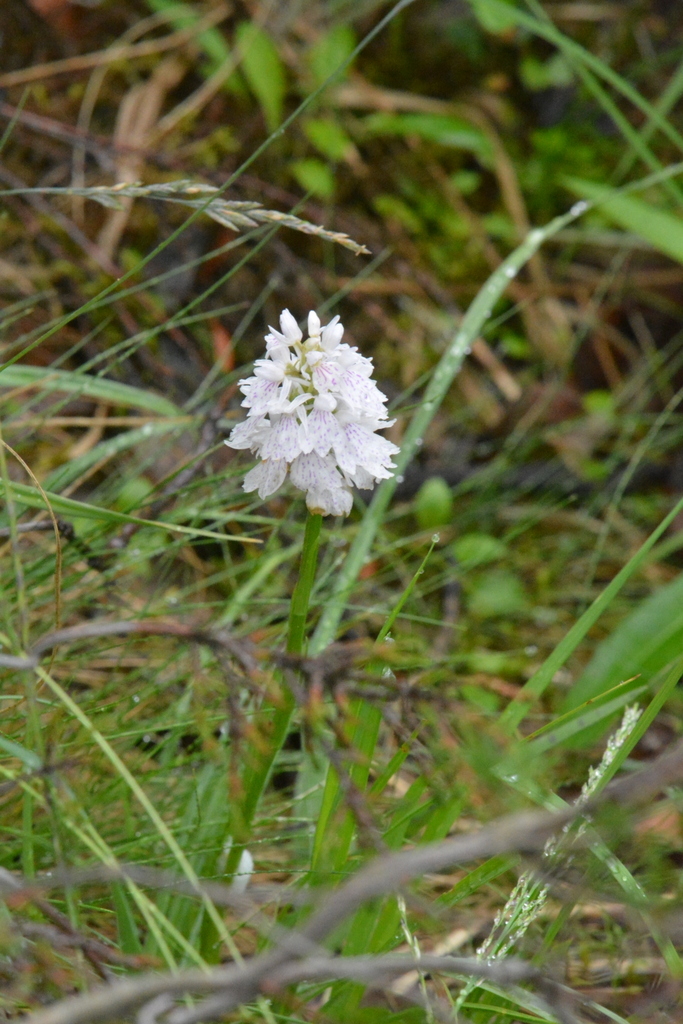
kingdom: Plantae
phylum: Tracheophyta
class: Liliopsida
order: Asparagales
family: Orchidaceae
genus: Dactylorhiza
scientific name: Dactylorhiza maculata
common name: Heath spotted-orchid
